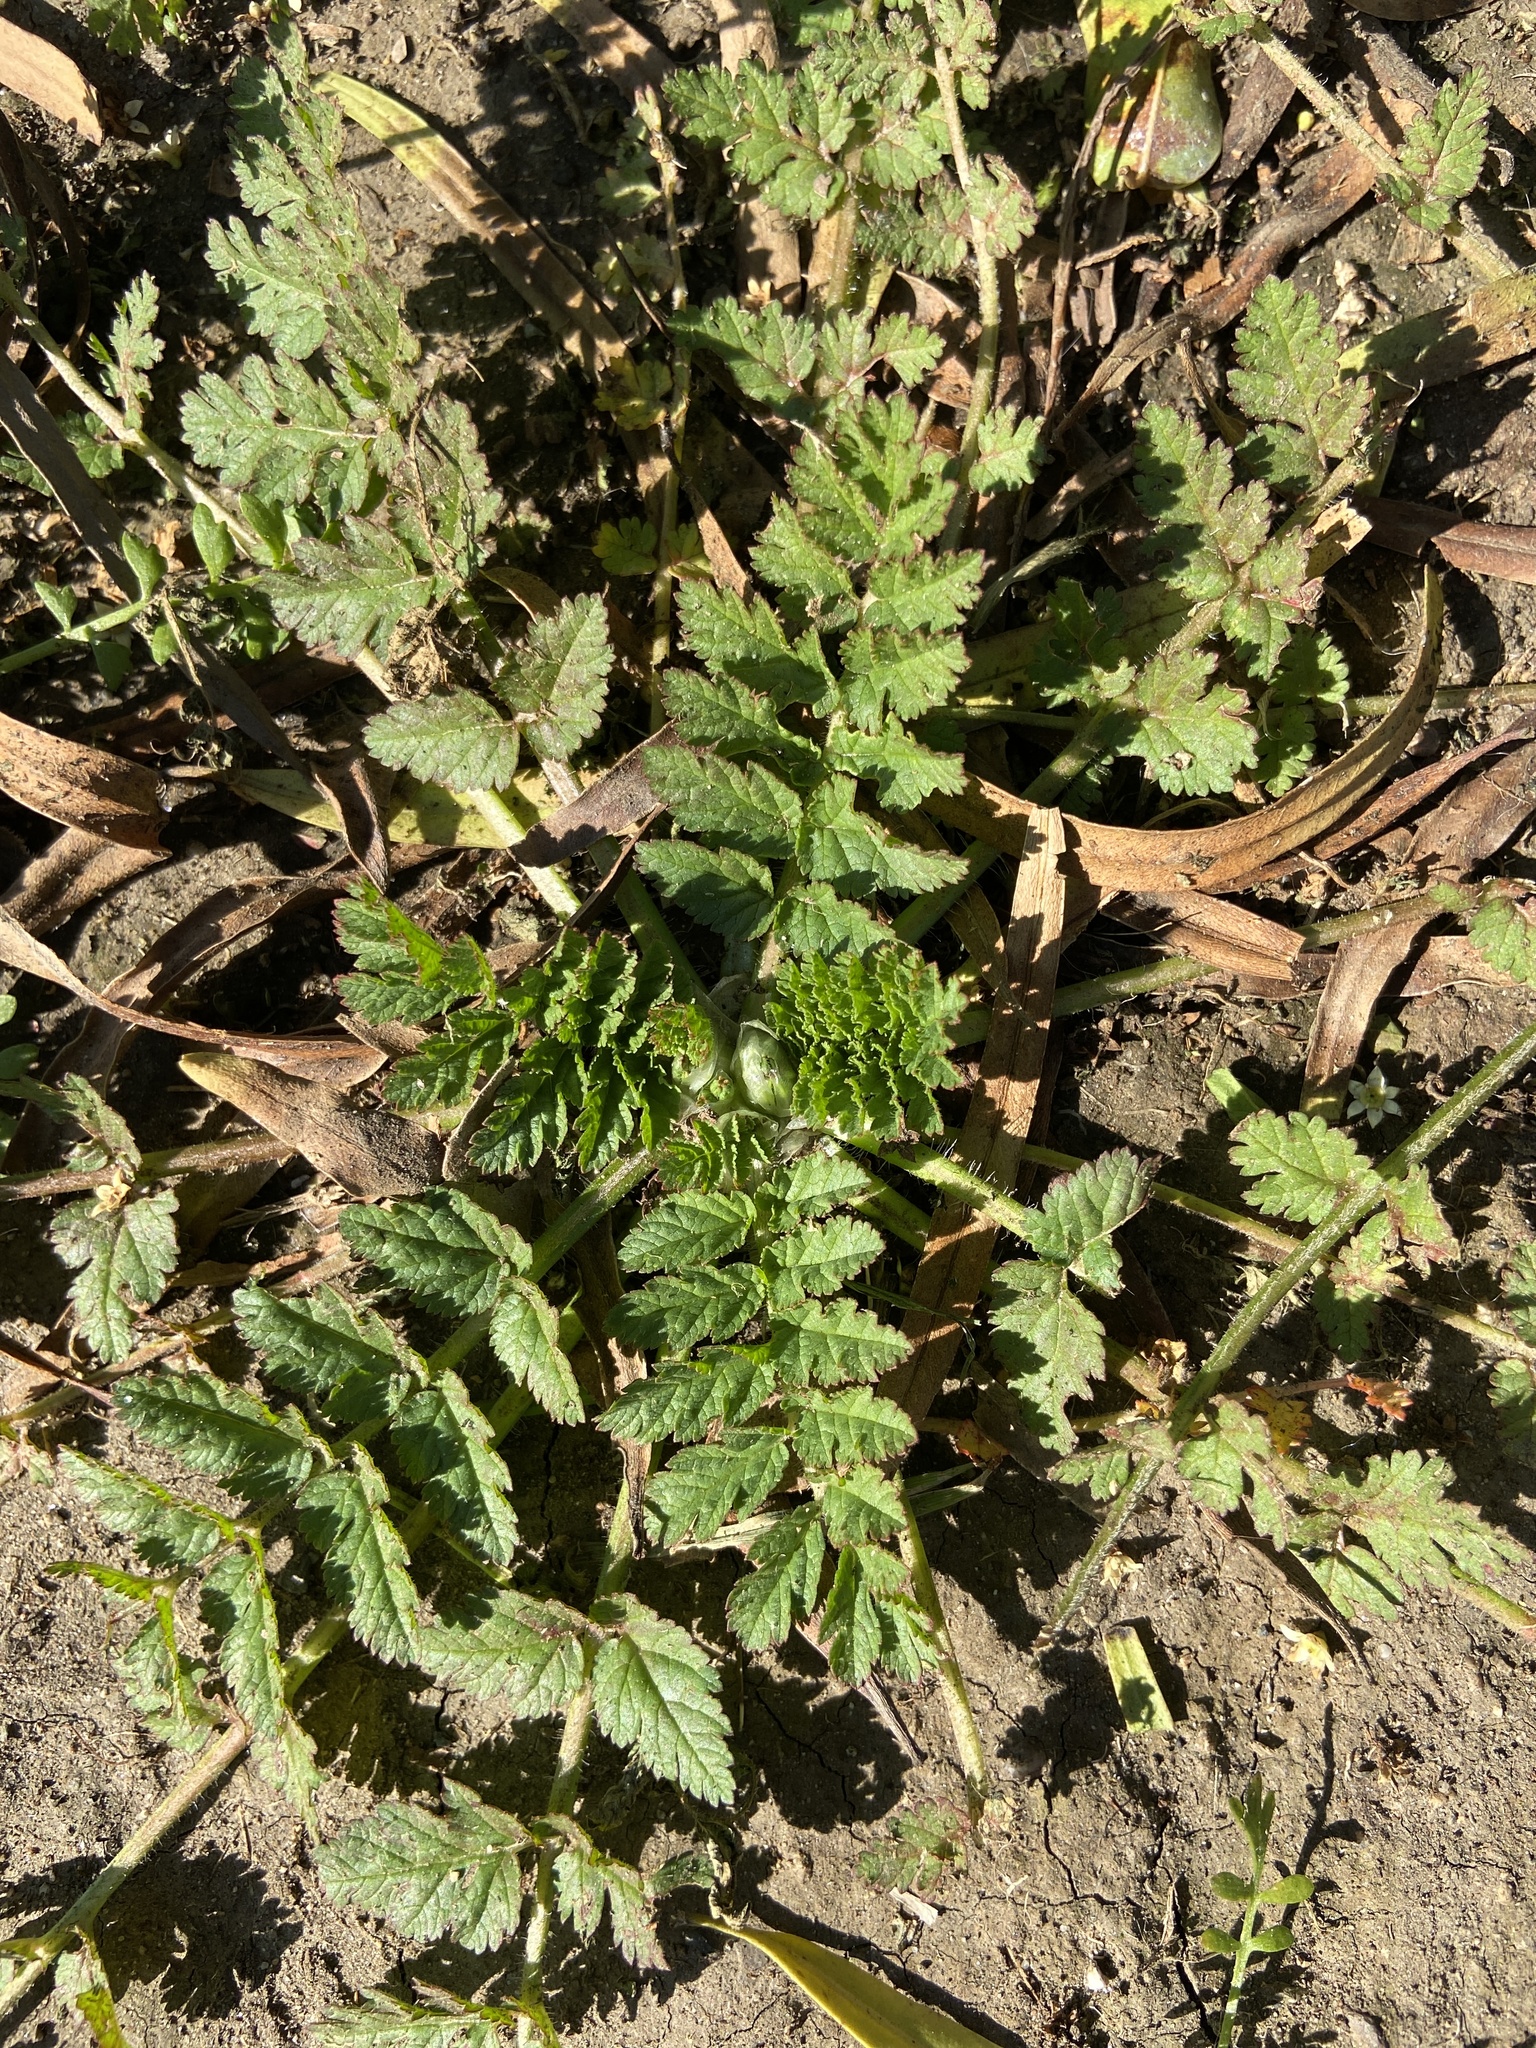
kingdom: Plantae
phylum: Tracheophyta
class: Magnoliopsida
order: Geraniales
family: Geraniaceae
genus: Erodium
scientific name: Erodium moschatum
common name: Musk stork's-bill
